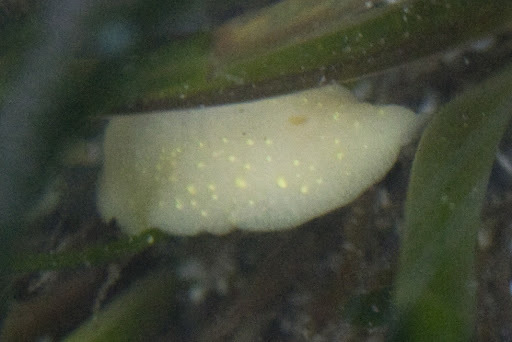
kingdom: Animalia
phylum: Mollusca
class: Gastropoda
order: Nudibranchia
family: Cadlinidae
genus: Cadlina
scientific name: Cadlina modesta
